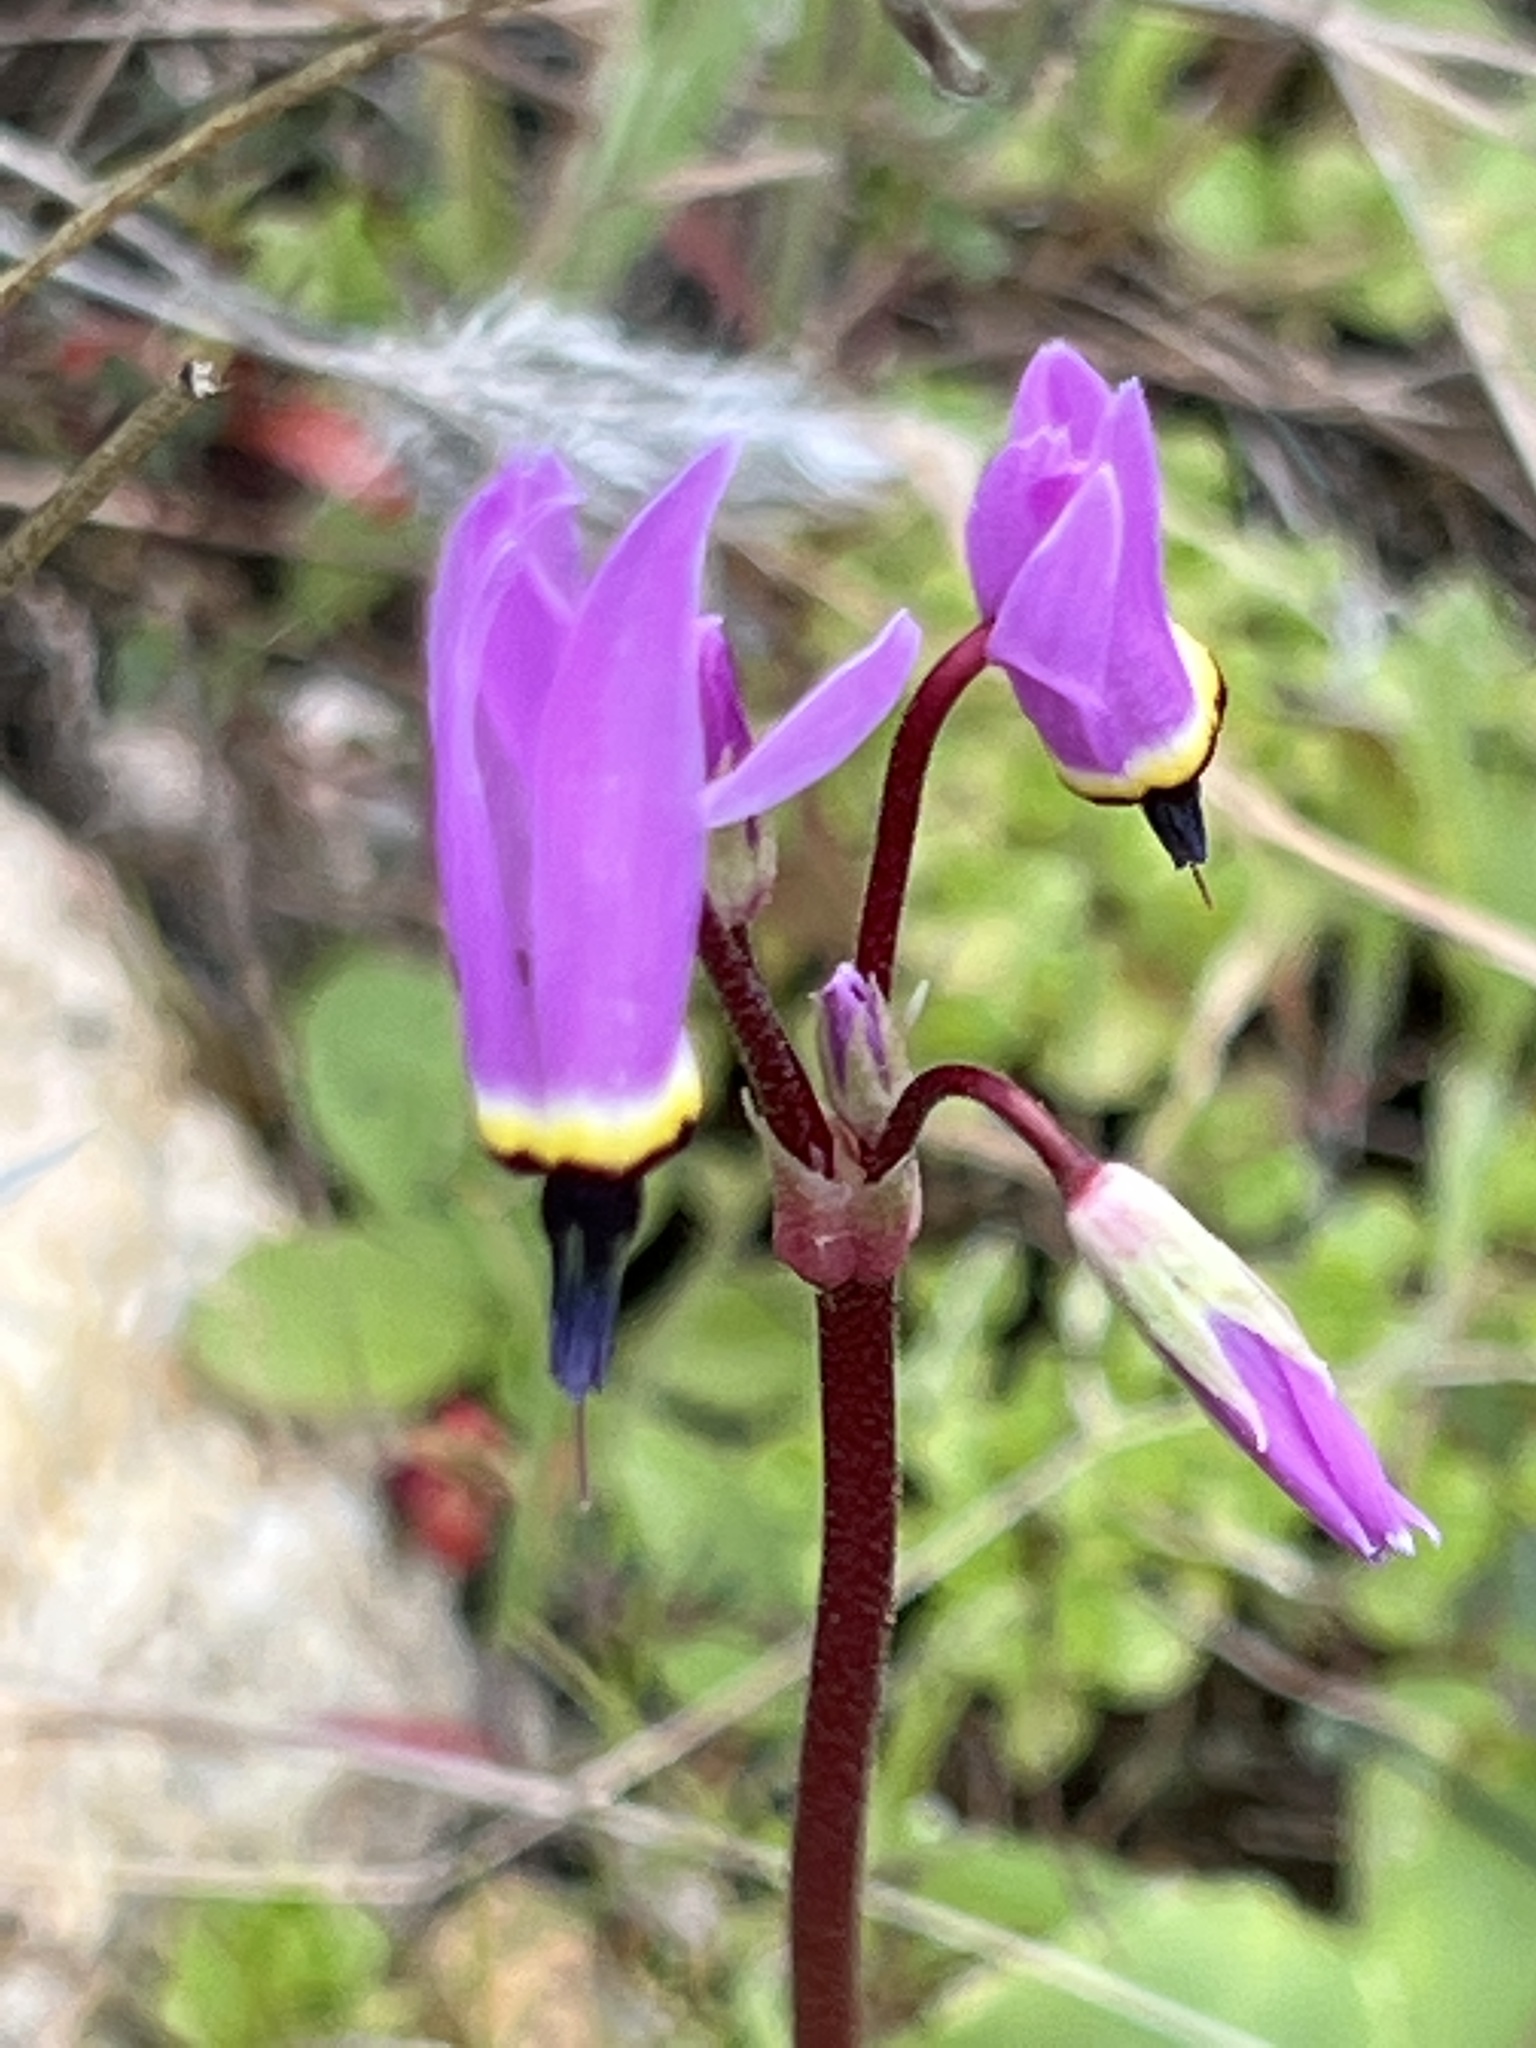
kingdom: Plantae
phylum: Tracheophyta
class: Magnoliopsida
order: Ericales
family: Primulaceae
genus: Dodecatheon
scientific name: Dodecatheon hendersonii
